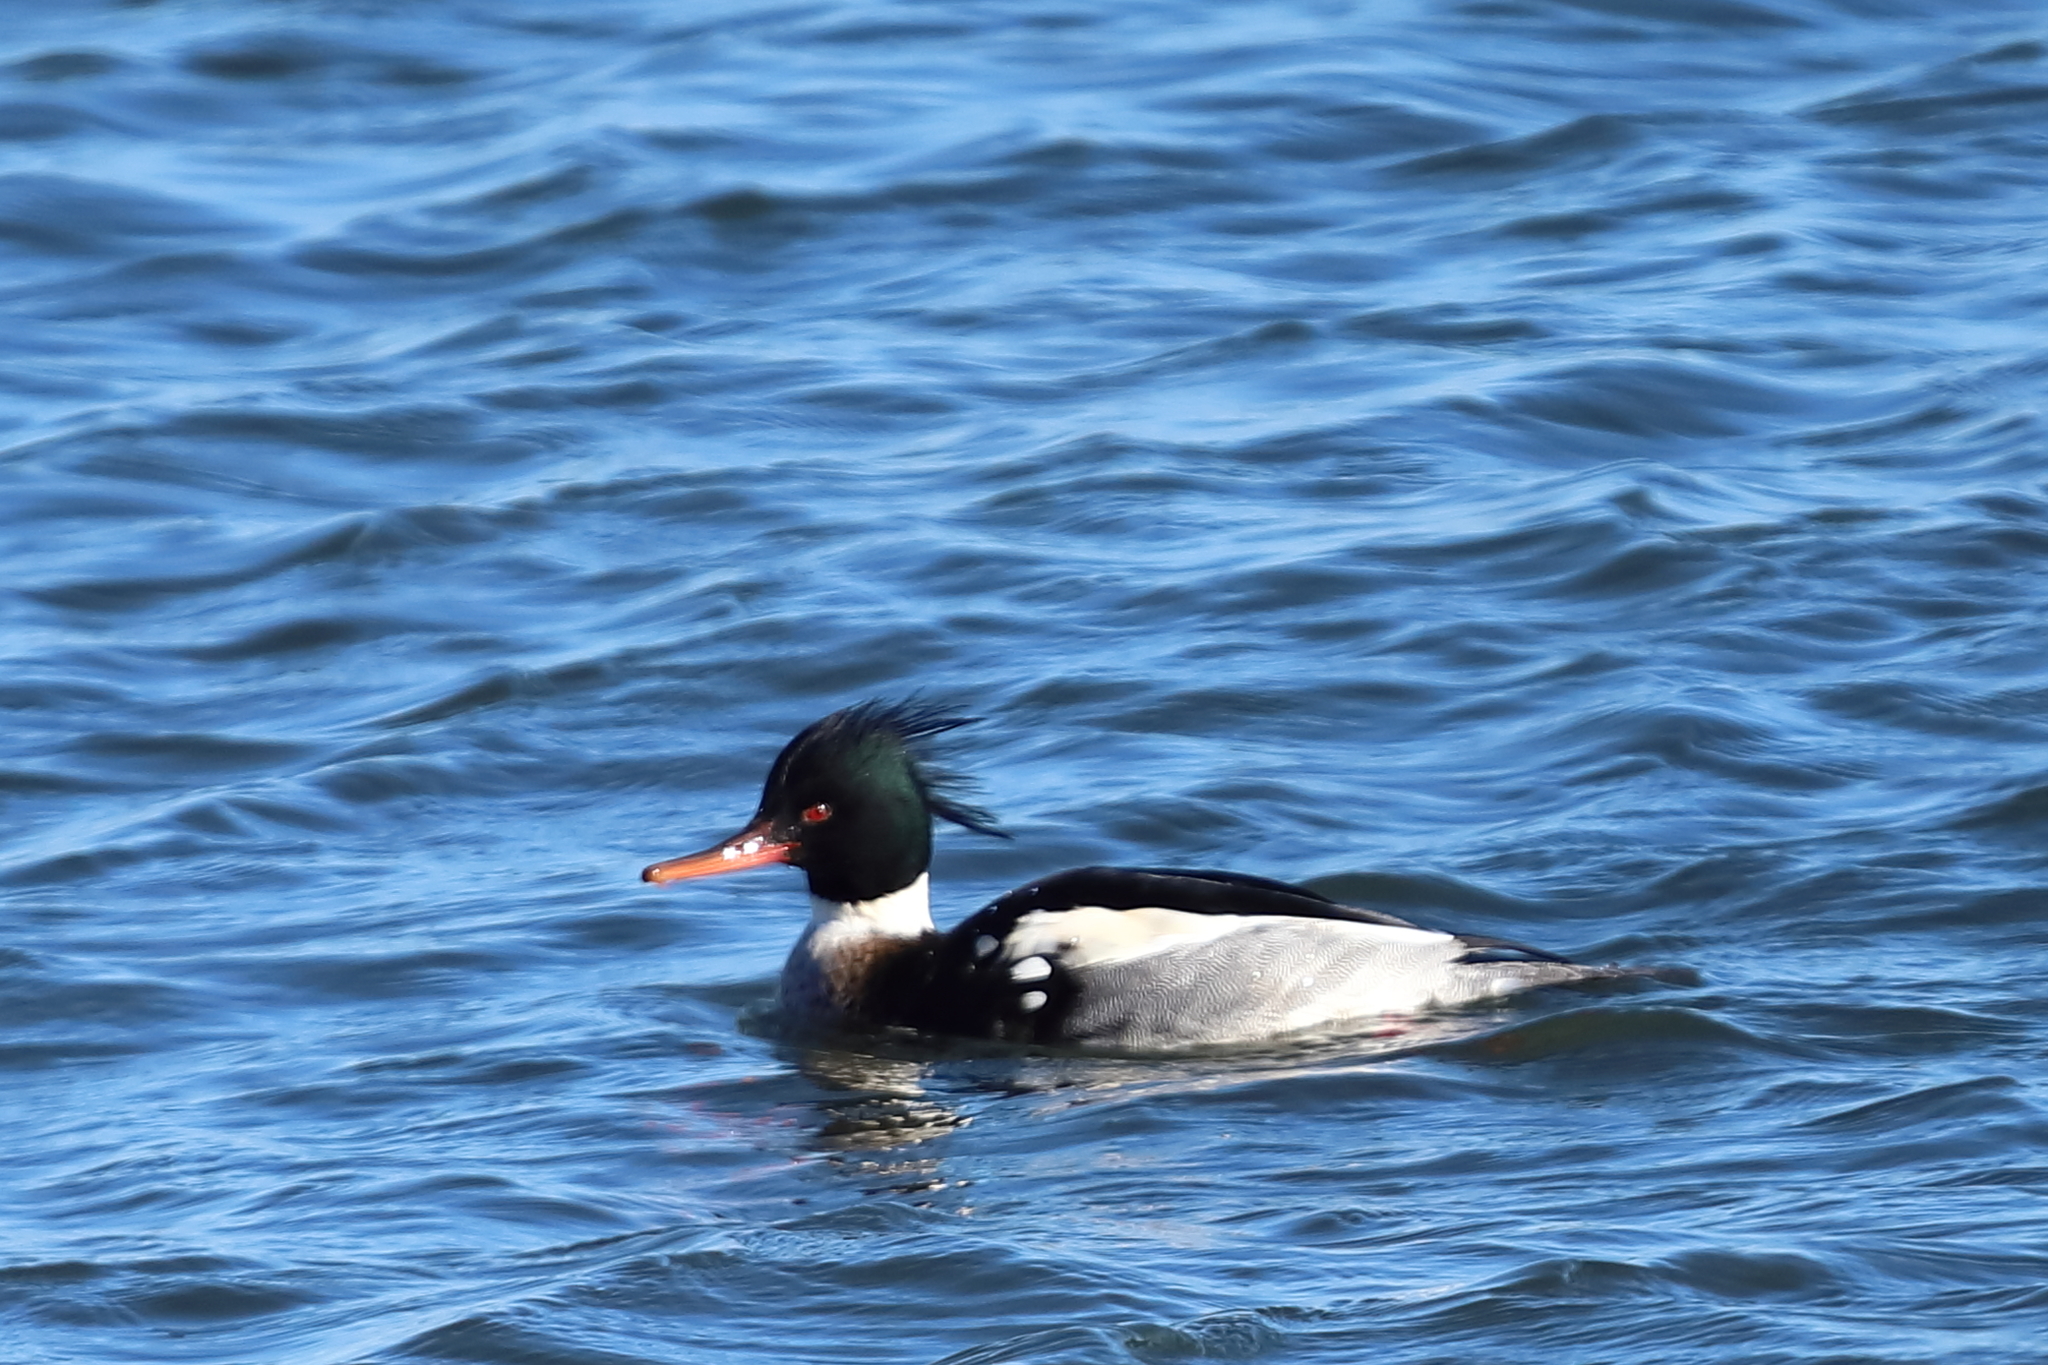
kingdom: Animalia
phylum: Chordata
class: Aves
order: Anseriformes
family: Anatidae
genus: Mergus
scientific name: Mergus serrator
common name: Red-breasted merganser
